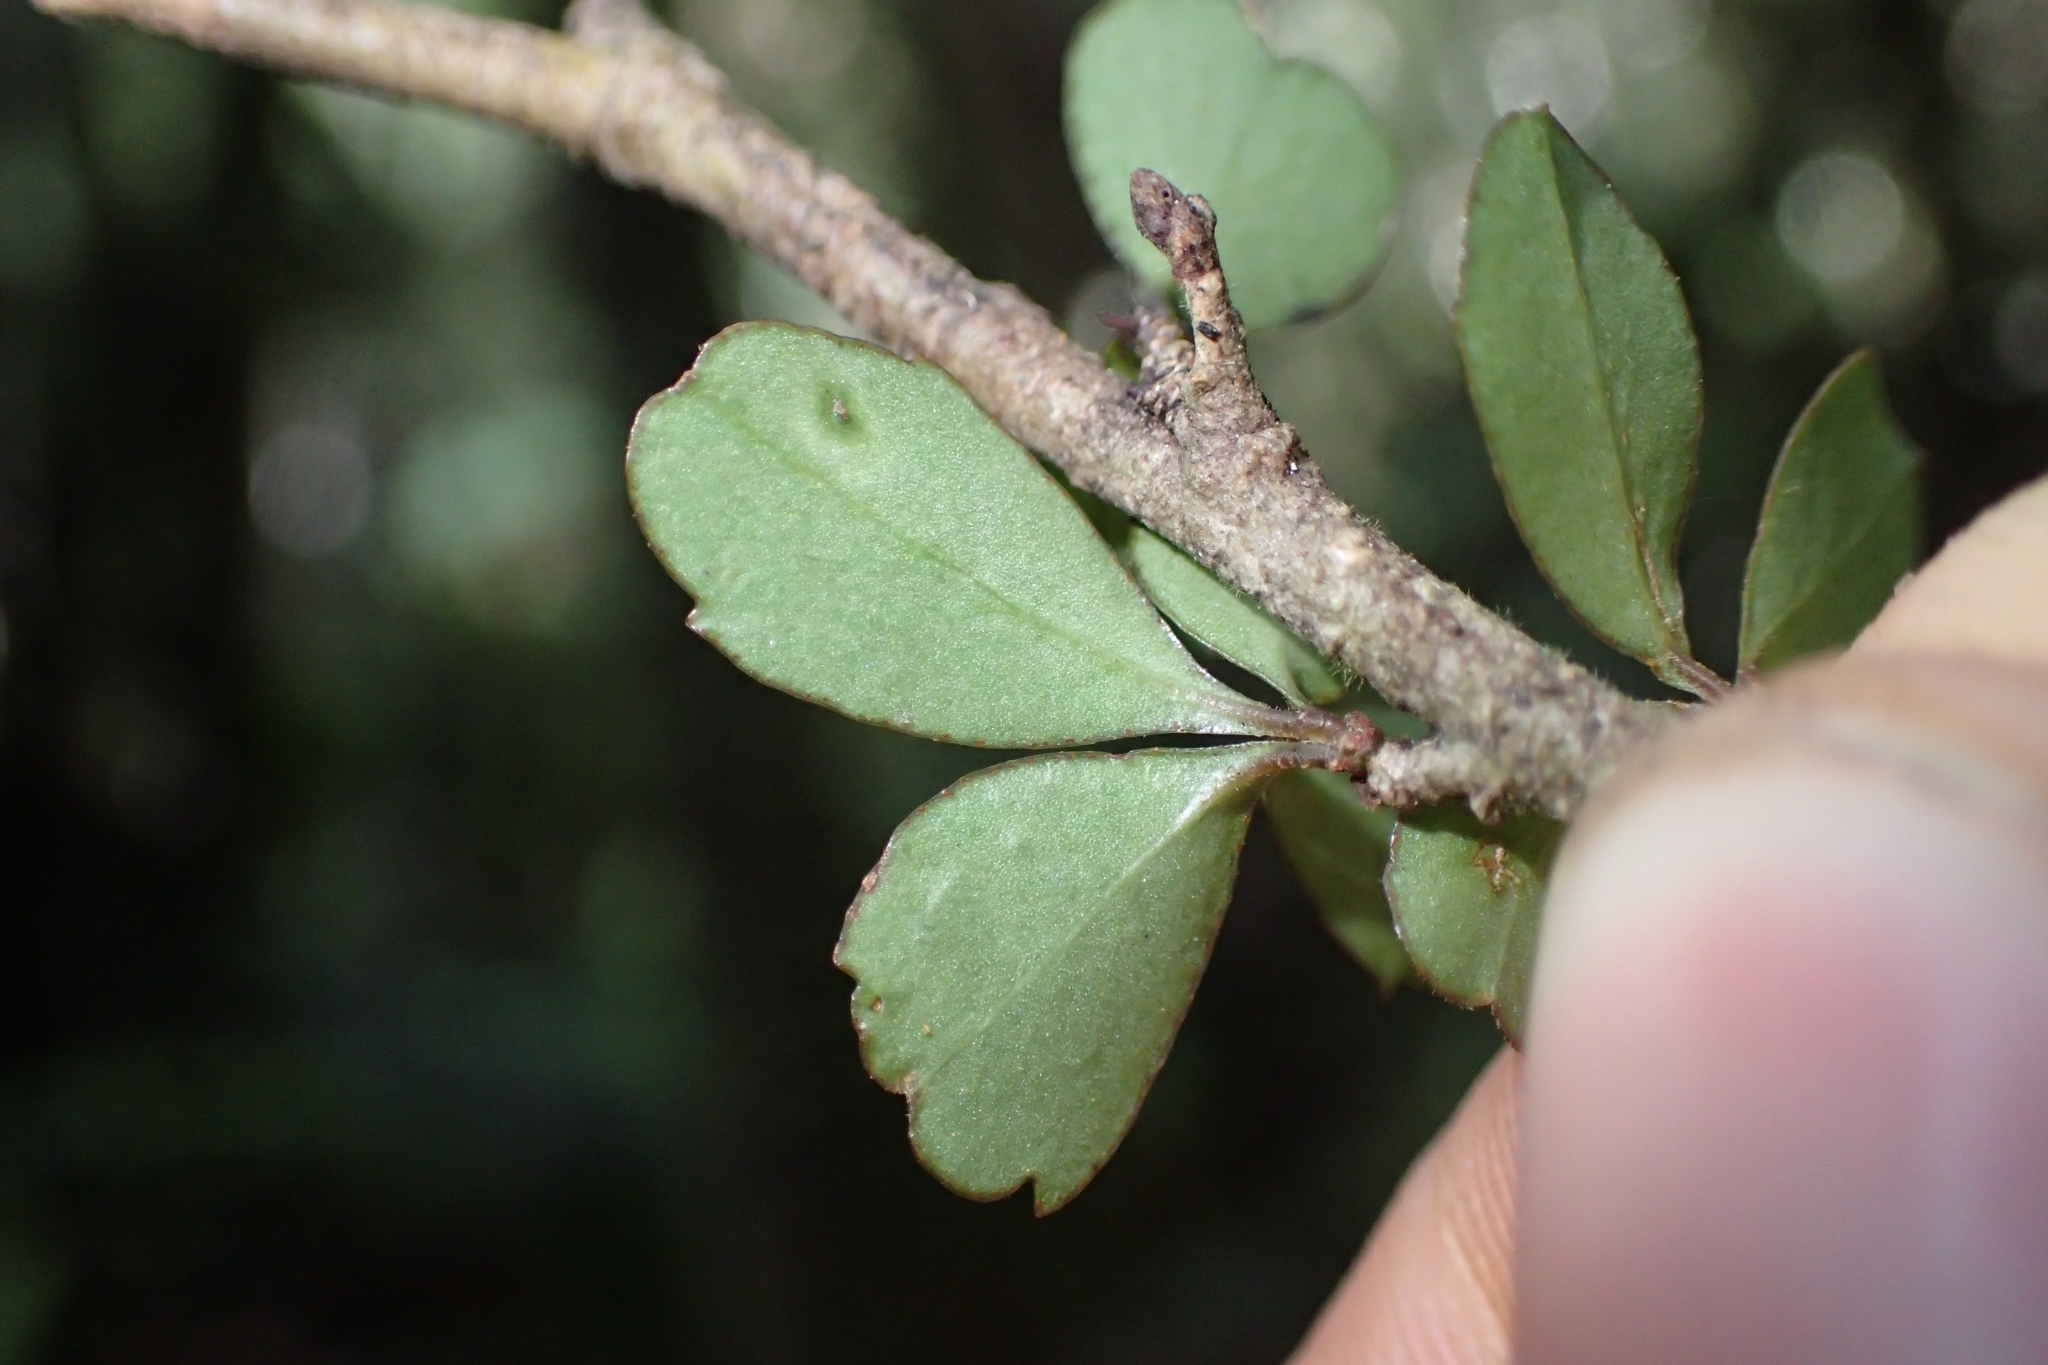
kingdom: Plantae
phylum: Tracheophyta
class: Magnoliopsida
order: Ericales
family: Primulaceae
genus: Myrsine
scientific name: Myrsine divaricata
